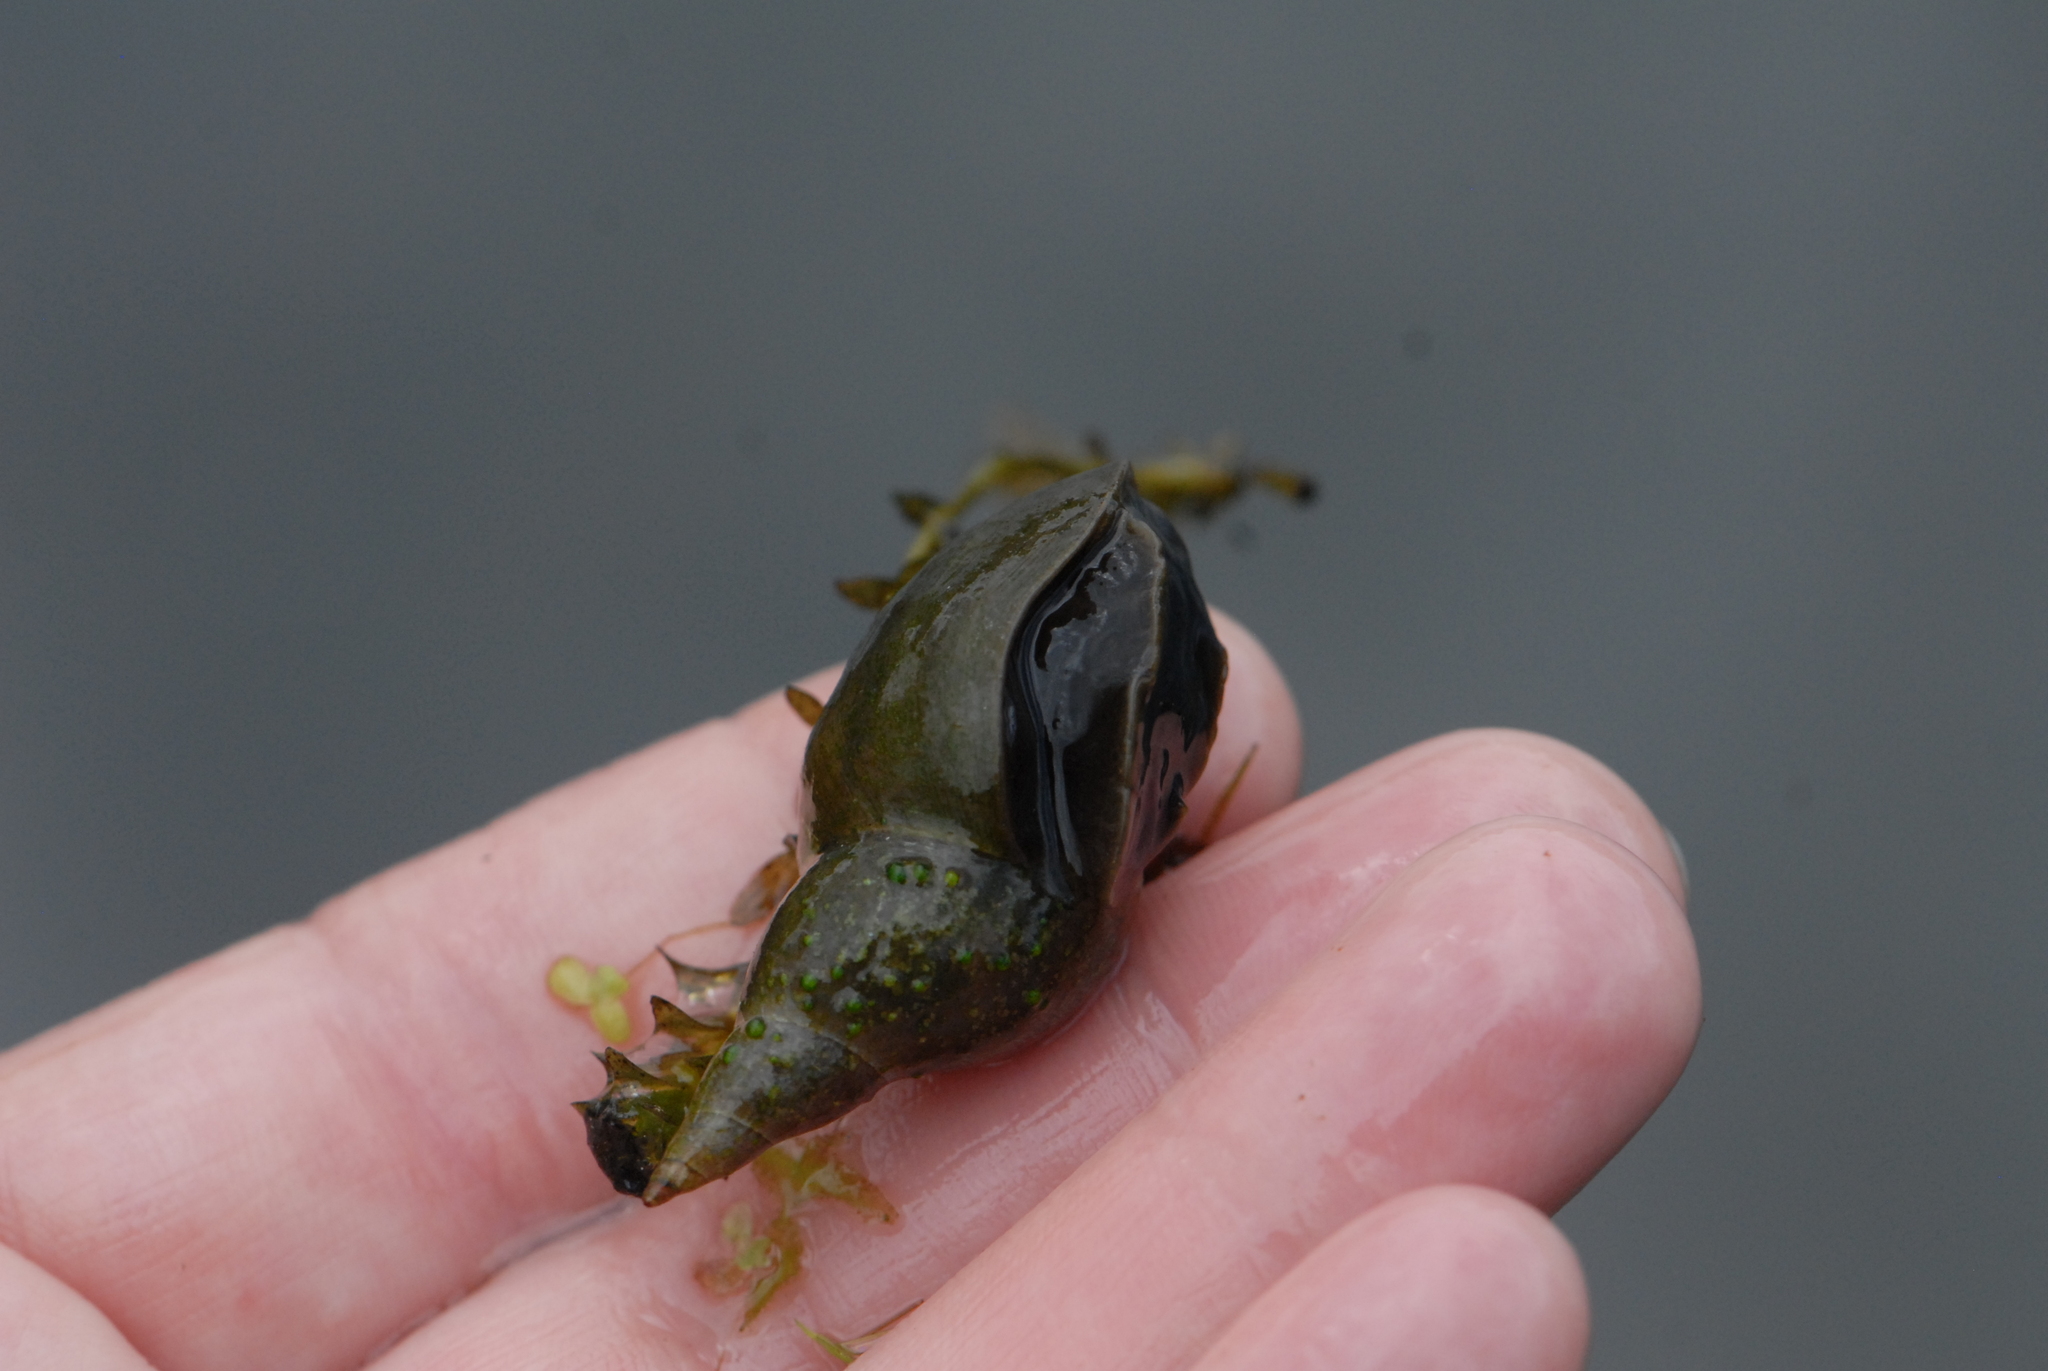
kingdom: Animalia
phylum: Mollusca
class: Gastropoda
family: Lymnaeidae
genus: Lymnaea
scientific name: Lymnaea stagnalis
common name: Great pond snail
